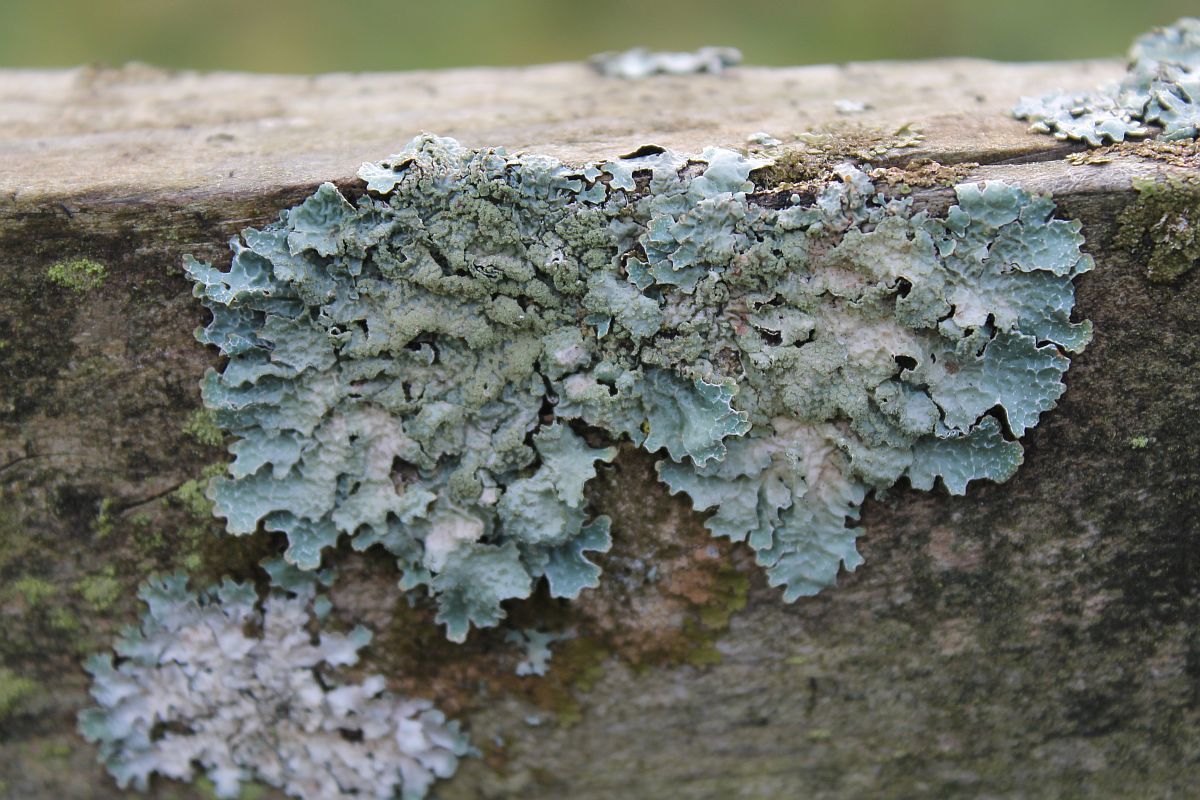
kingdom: Fungi
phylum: Ascomycota
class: Lecanoromycetes
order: Lecanorales
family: Parmeliaceae
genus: Parmelia
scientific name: Parmelia sulcata
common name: Netted shield lichen
